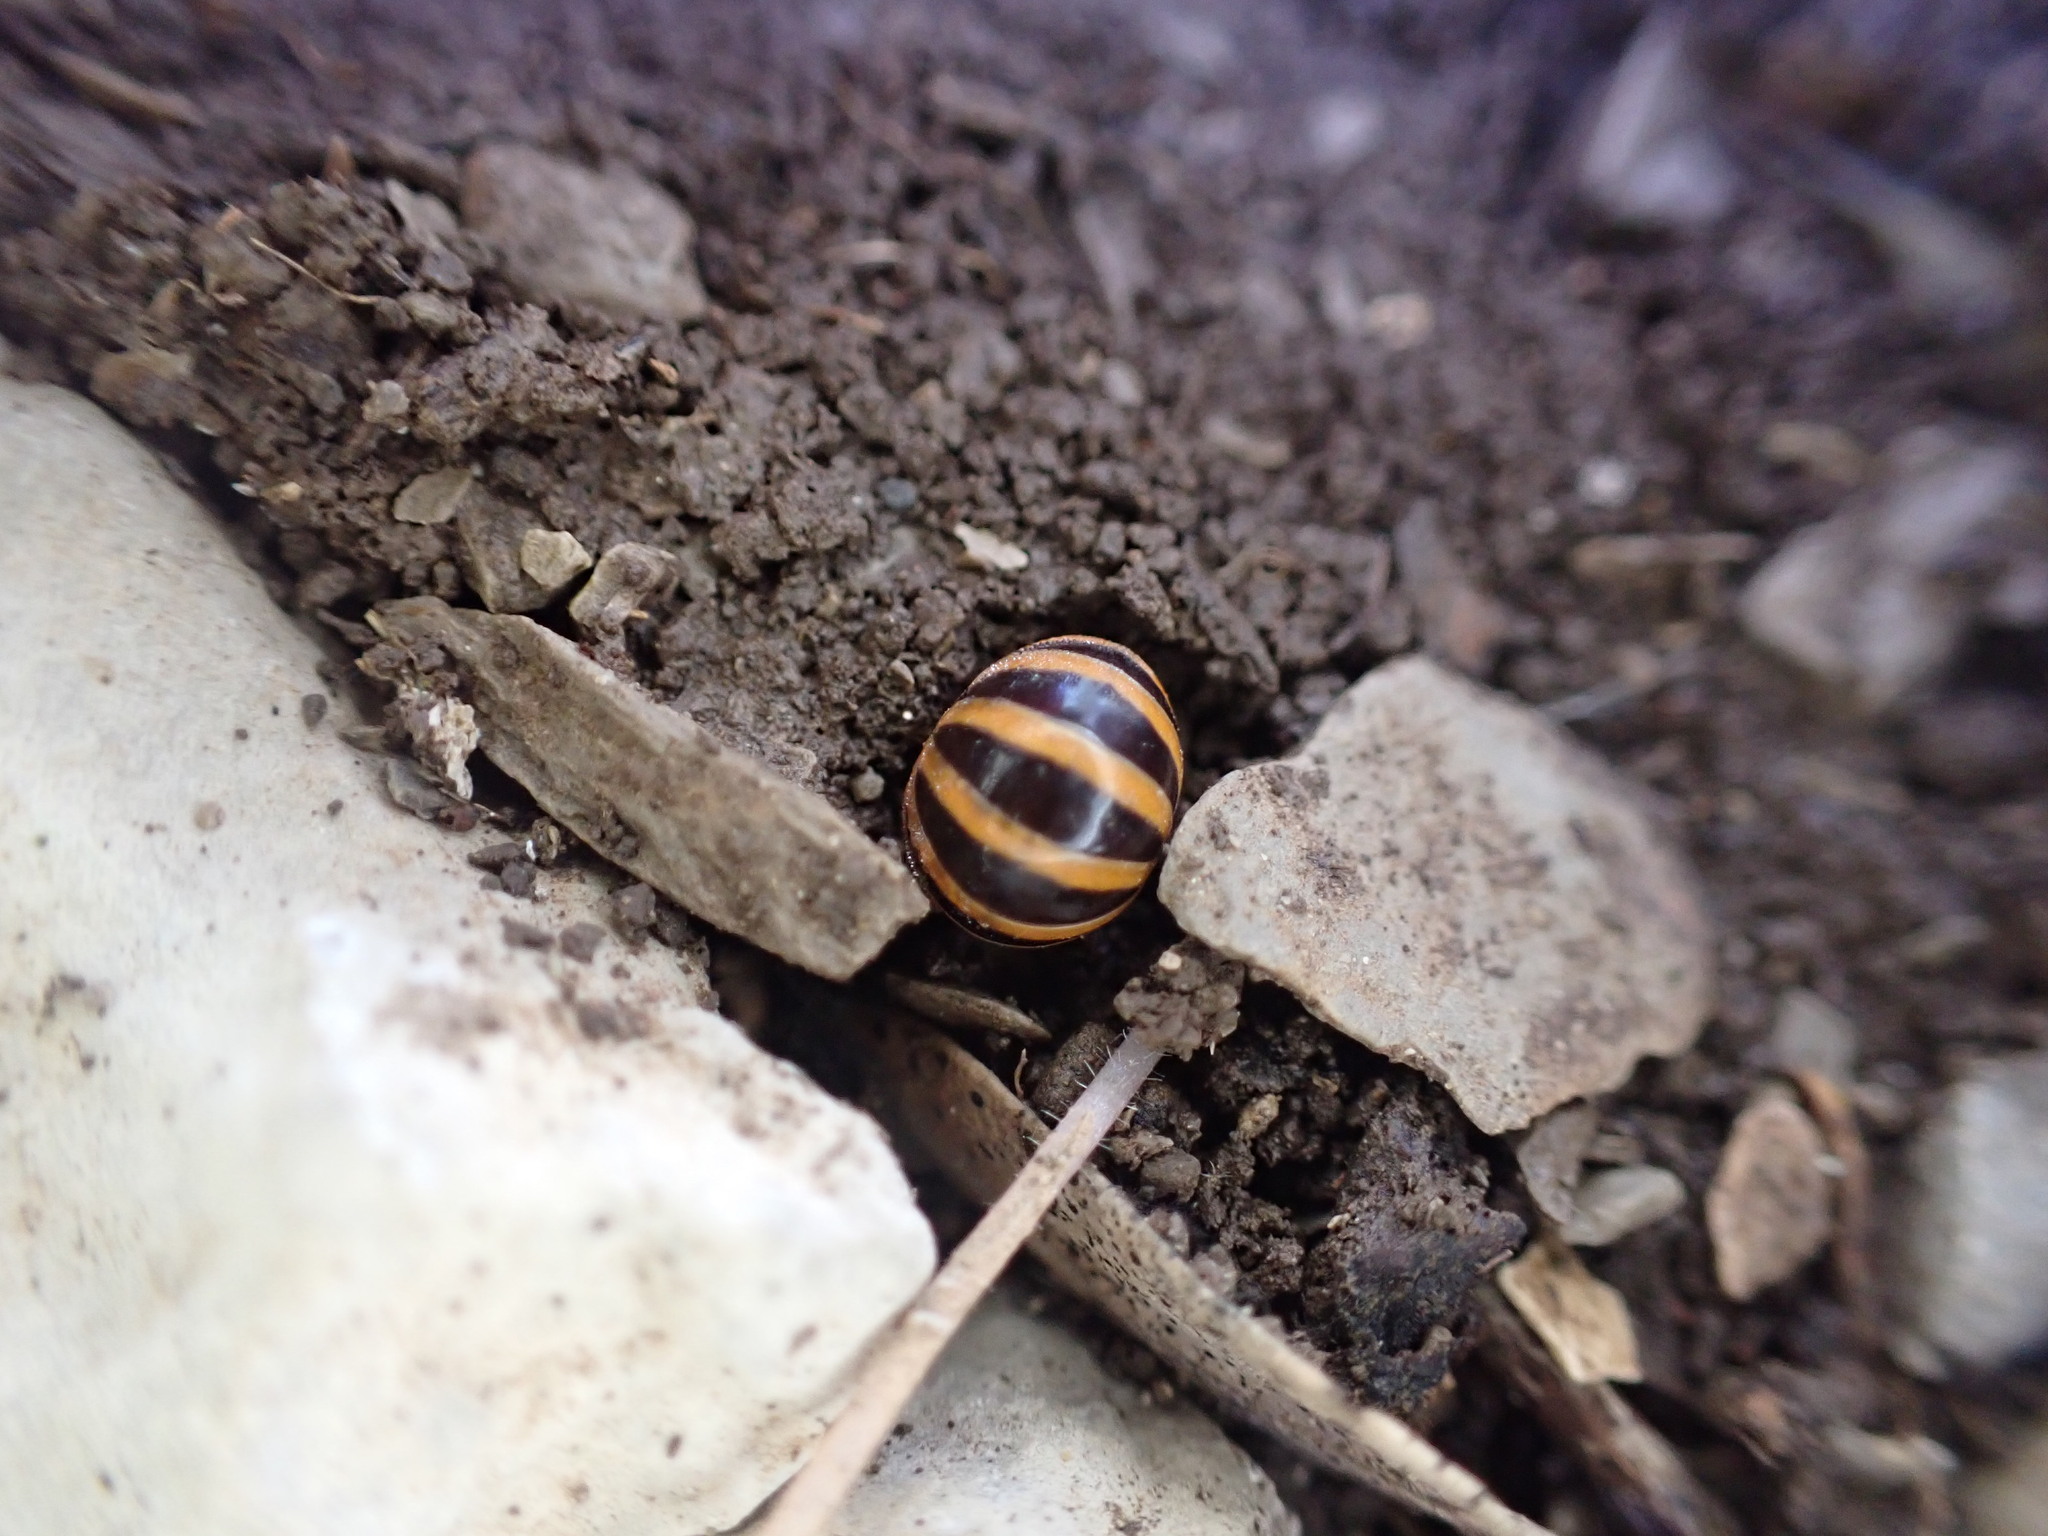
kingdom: Animalia
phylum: Arthropoda
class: Diplopoda
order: Glomerida
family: Glomeridae
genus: Glomeris
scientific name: Glomeris annulata
